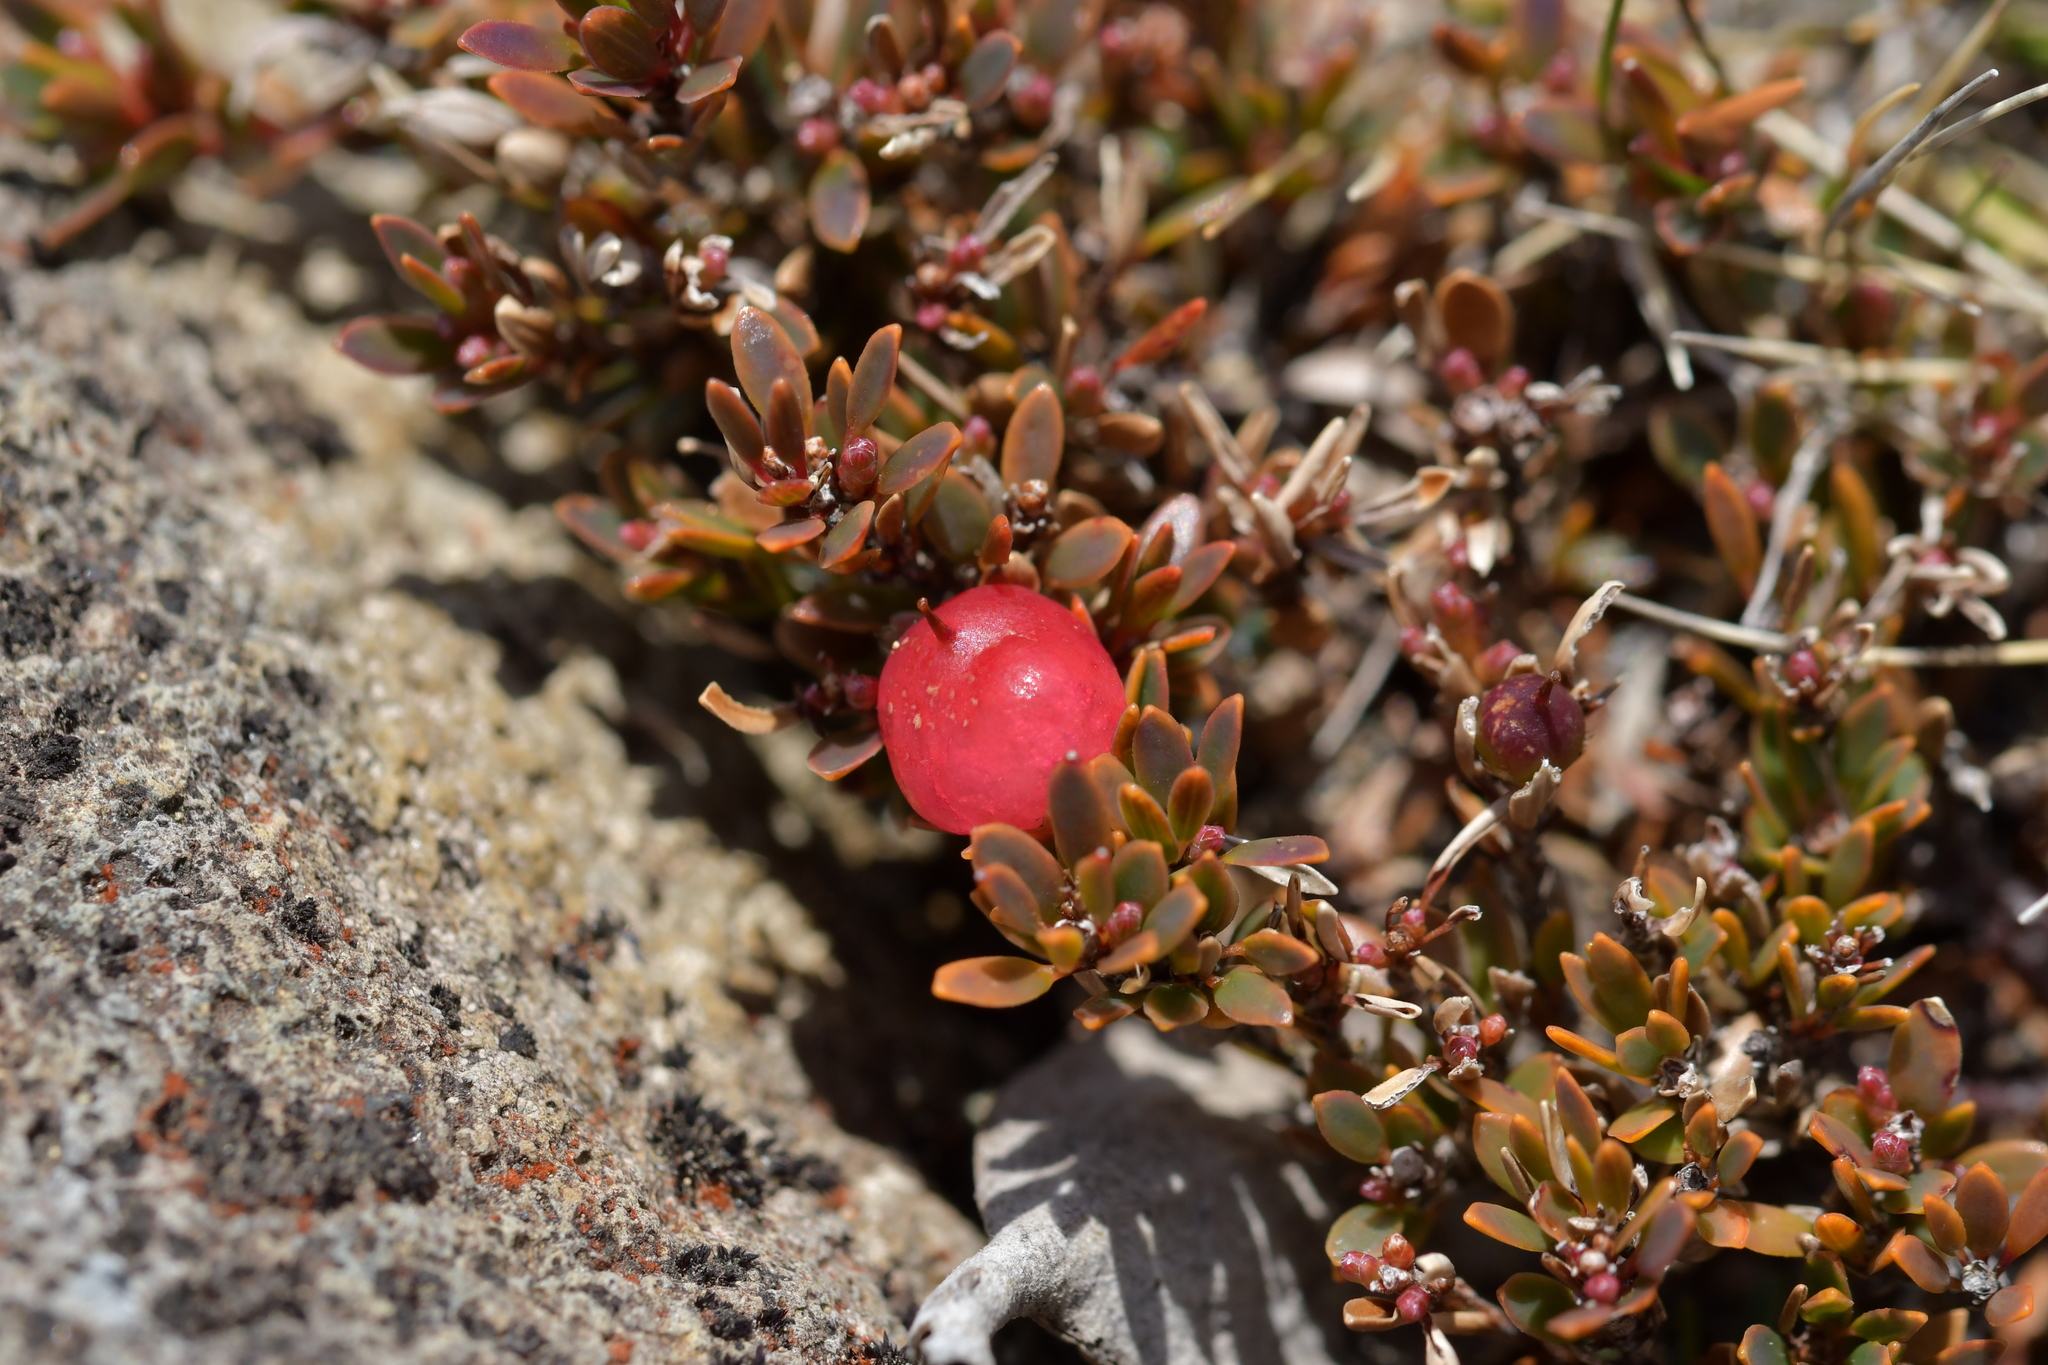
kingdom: Plantae
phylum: Tracheophyta
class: Magnoliopsida
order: Ericales
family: Ericaceae
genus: Pentachondra
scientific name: Pentachondra pumila
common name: Carpet-heath
